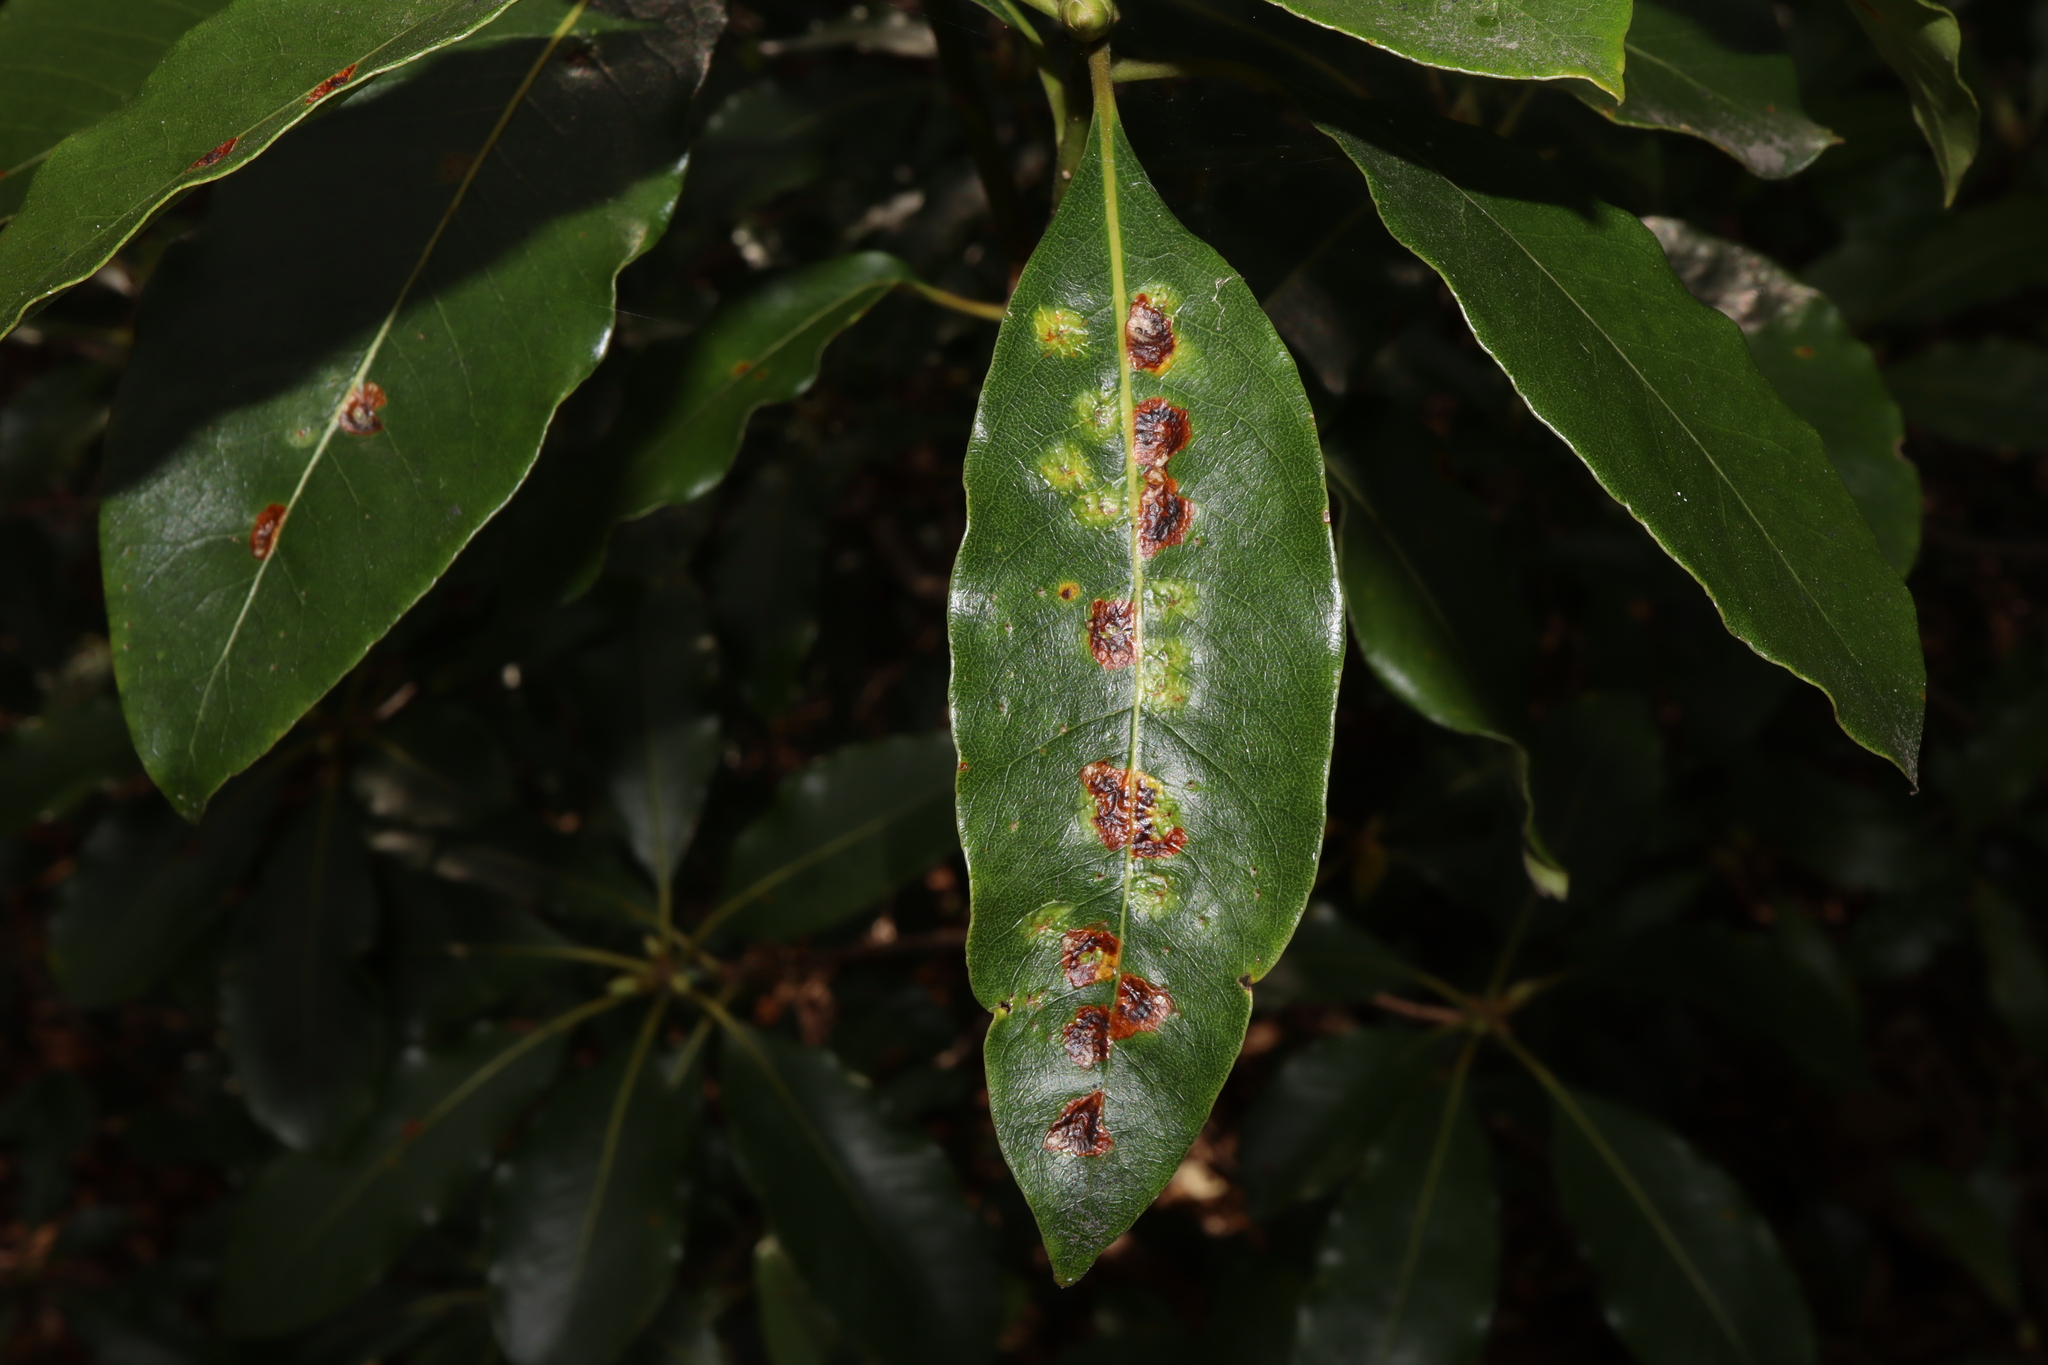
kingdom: Animalia
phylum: Arthropoda
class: Insecta
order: Diptera
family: Agromyzidae
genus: Phytoliriomyza
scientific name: Phytoliriomyza pittosporophylli
